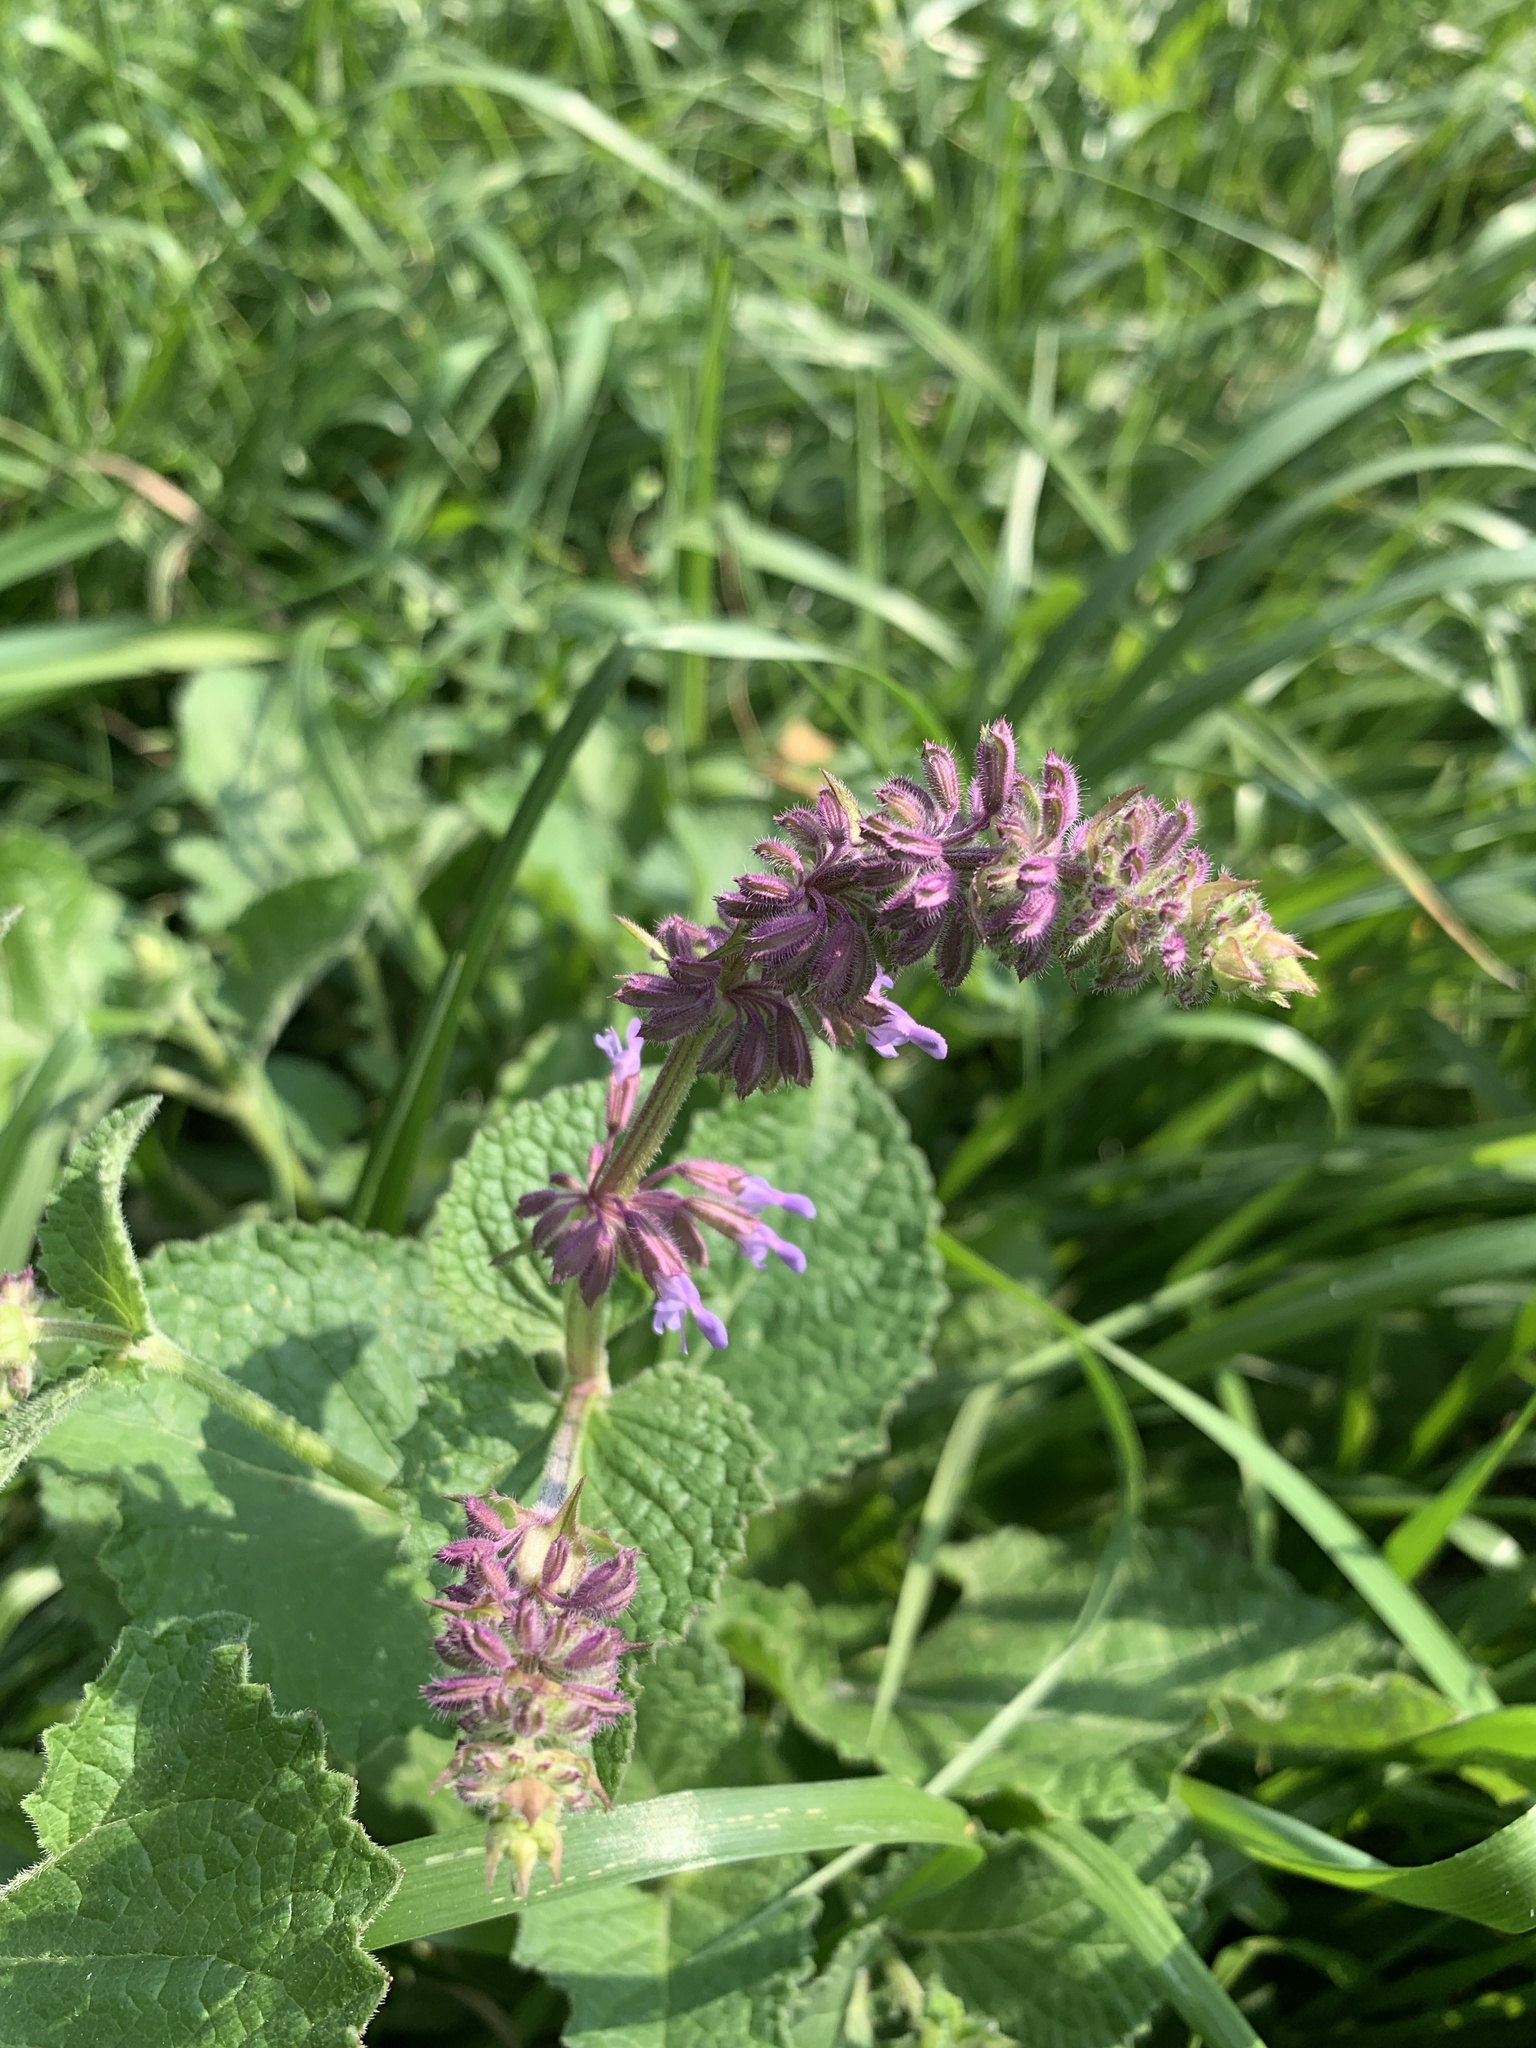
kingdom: Plantae
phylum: Tracheophyta
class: Magnoliopsida
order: Lamiales
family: Lamiaceae
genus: Salvia
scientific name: Salvia verticillata
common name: Whorled clary
